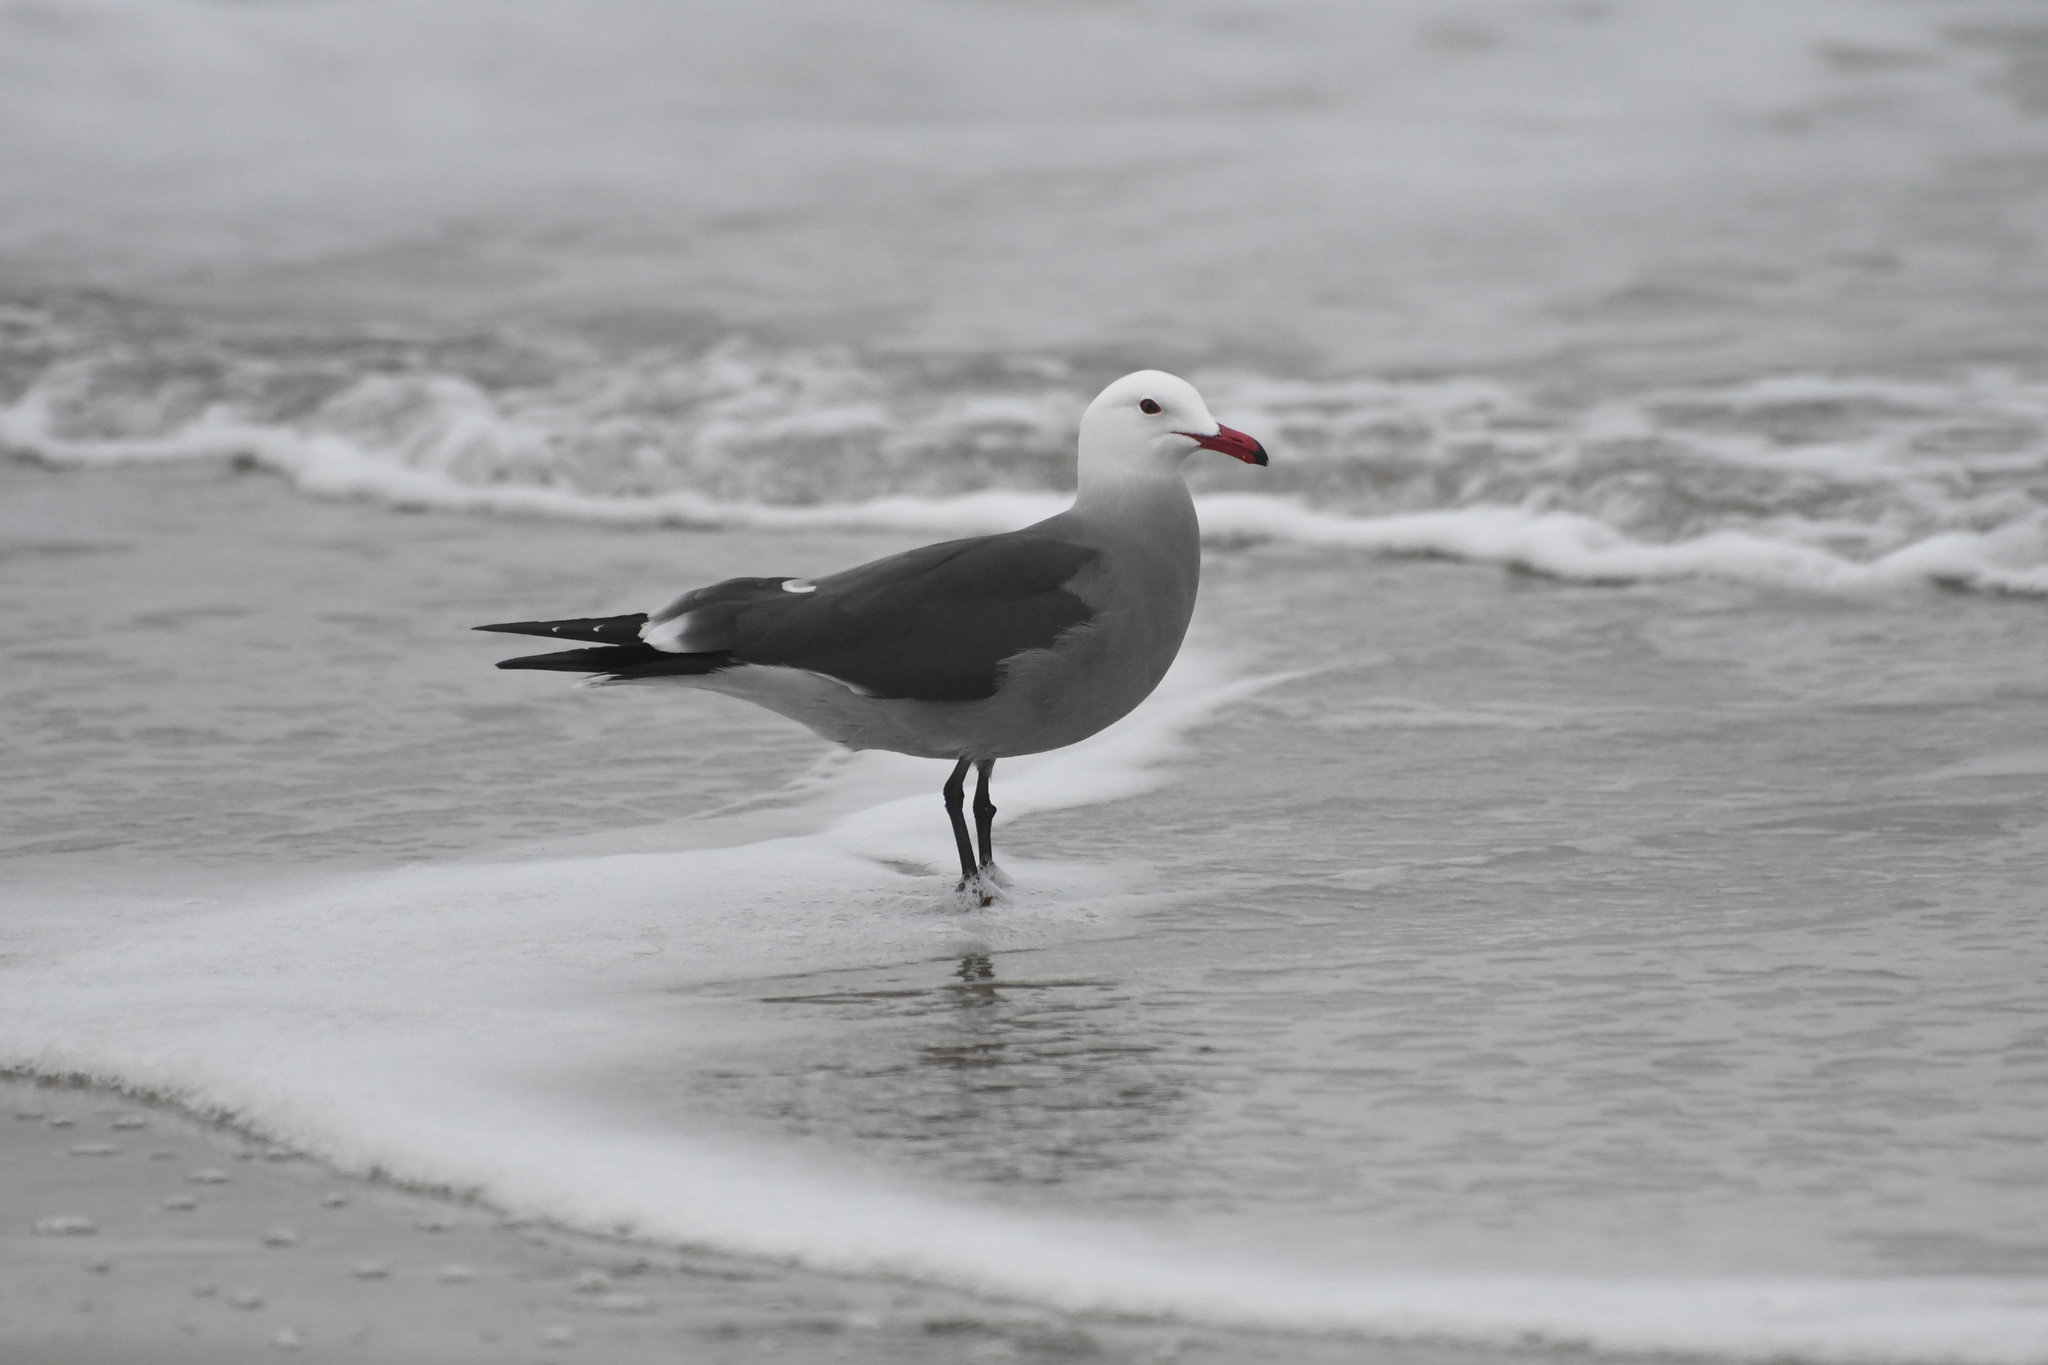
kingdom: Animalia
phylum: Chordata
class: Aves
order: Charadriiformes
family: Laridae
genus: Larus
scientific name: Larus heermanni
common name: Heermann's gull
